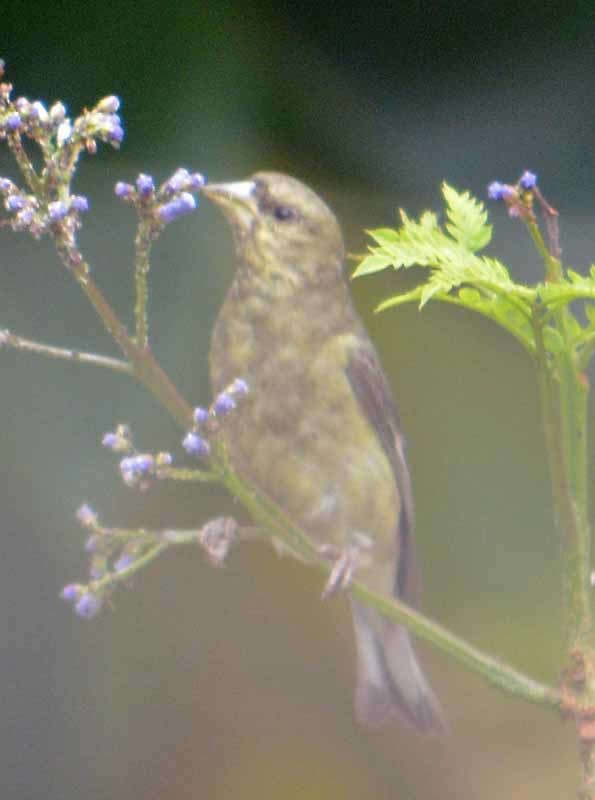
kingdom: Animalia
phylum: Chordata
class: Aves
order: Passeriformes
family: Fringillidae
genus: Spinus
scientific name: Spinus psaltria
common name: Lesser goldfinch
